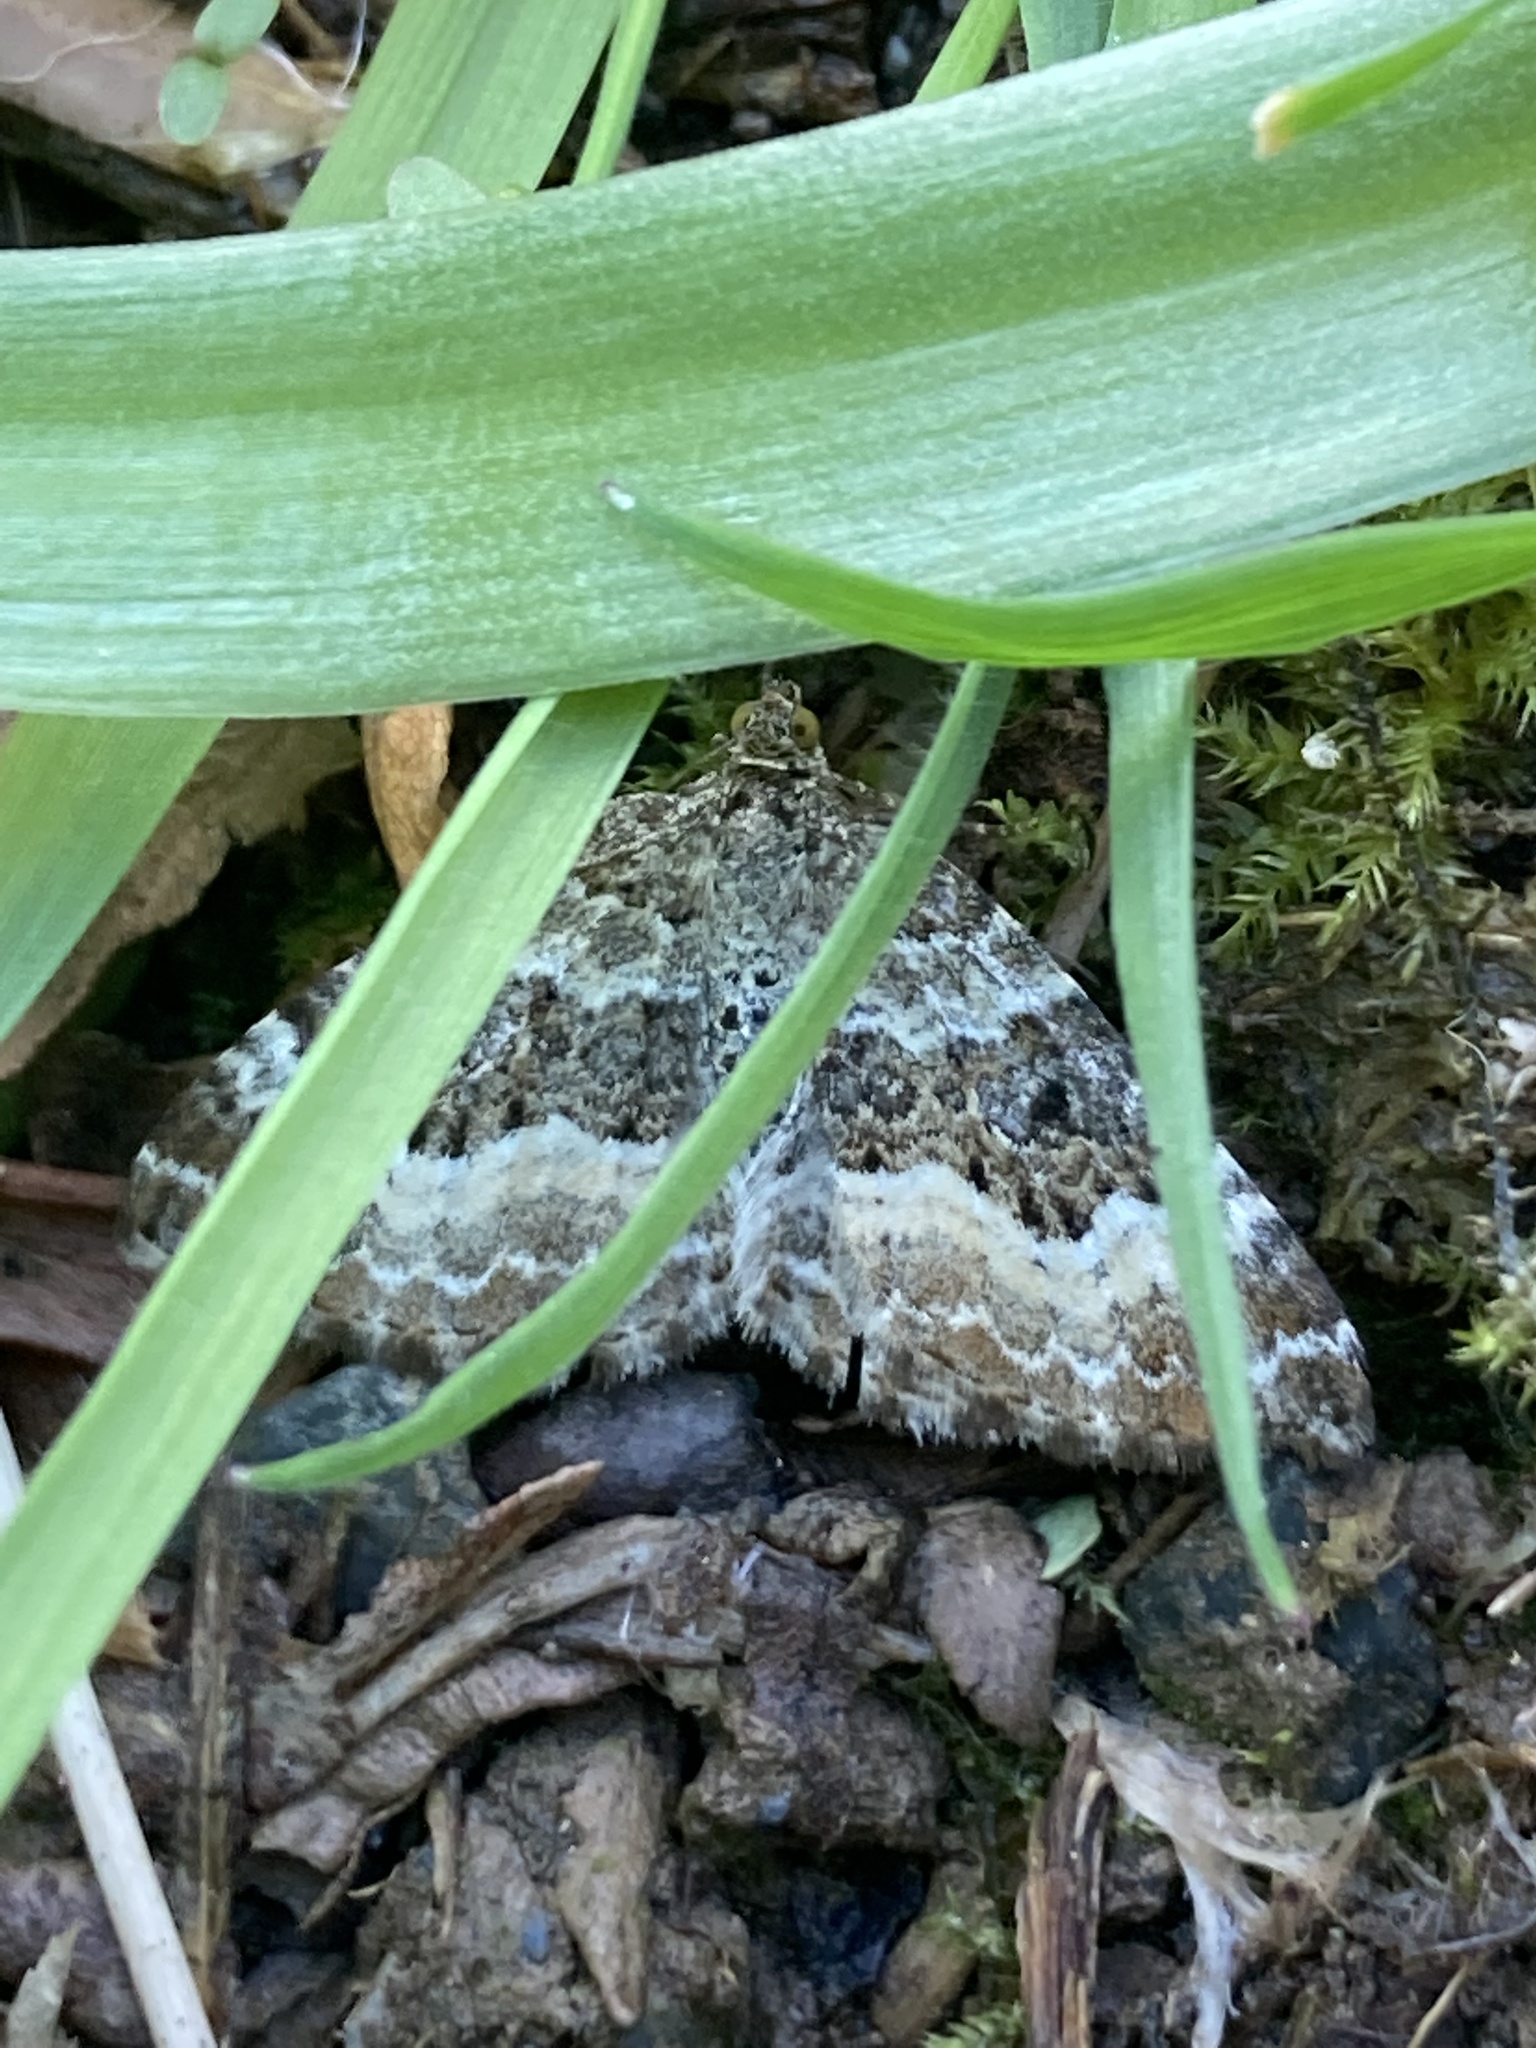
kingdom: Animalia
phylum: Arthropoda
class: Insecta
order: Lepidoptera
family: Geometridae
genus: Epirrhoe
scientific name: Epirrhoe alternata
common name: Common carpet
